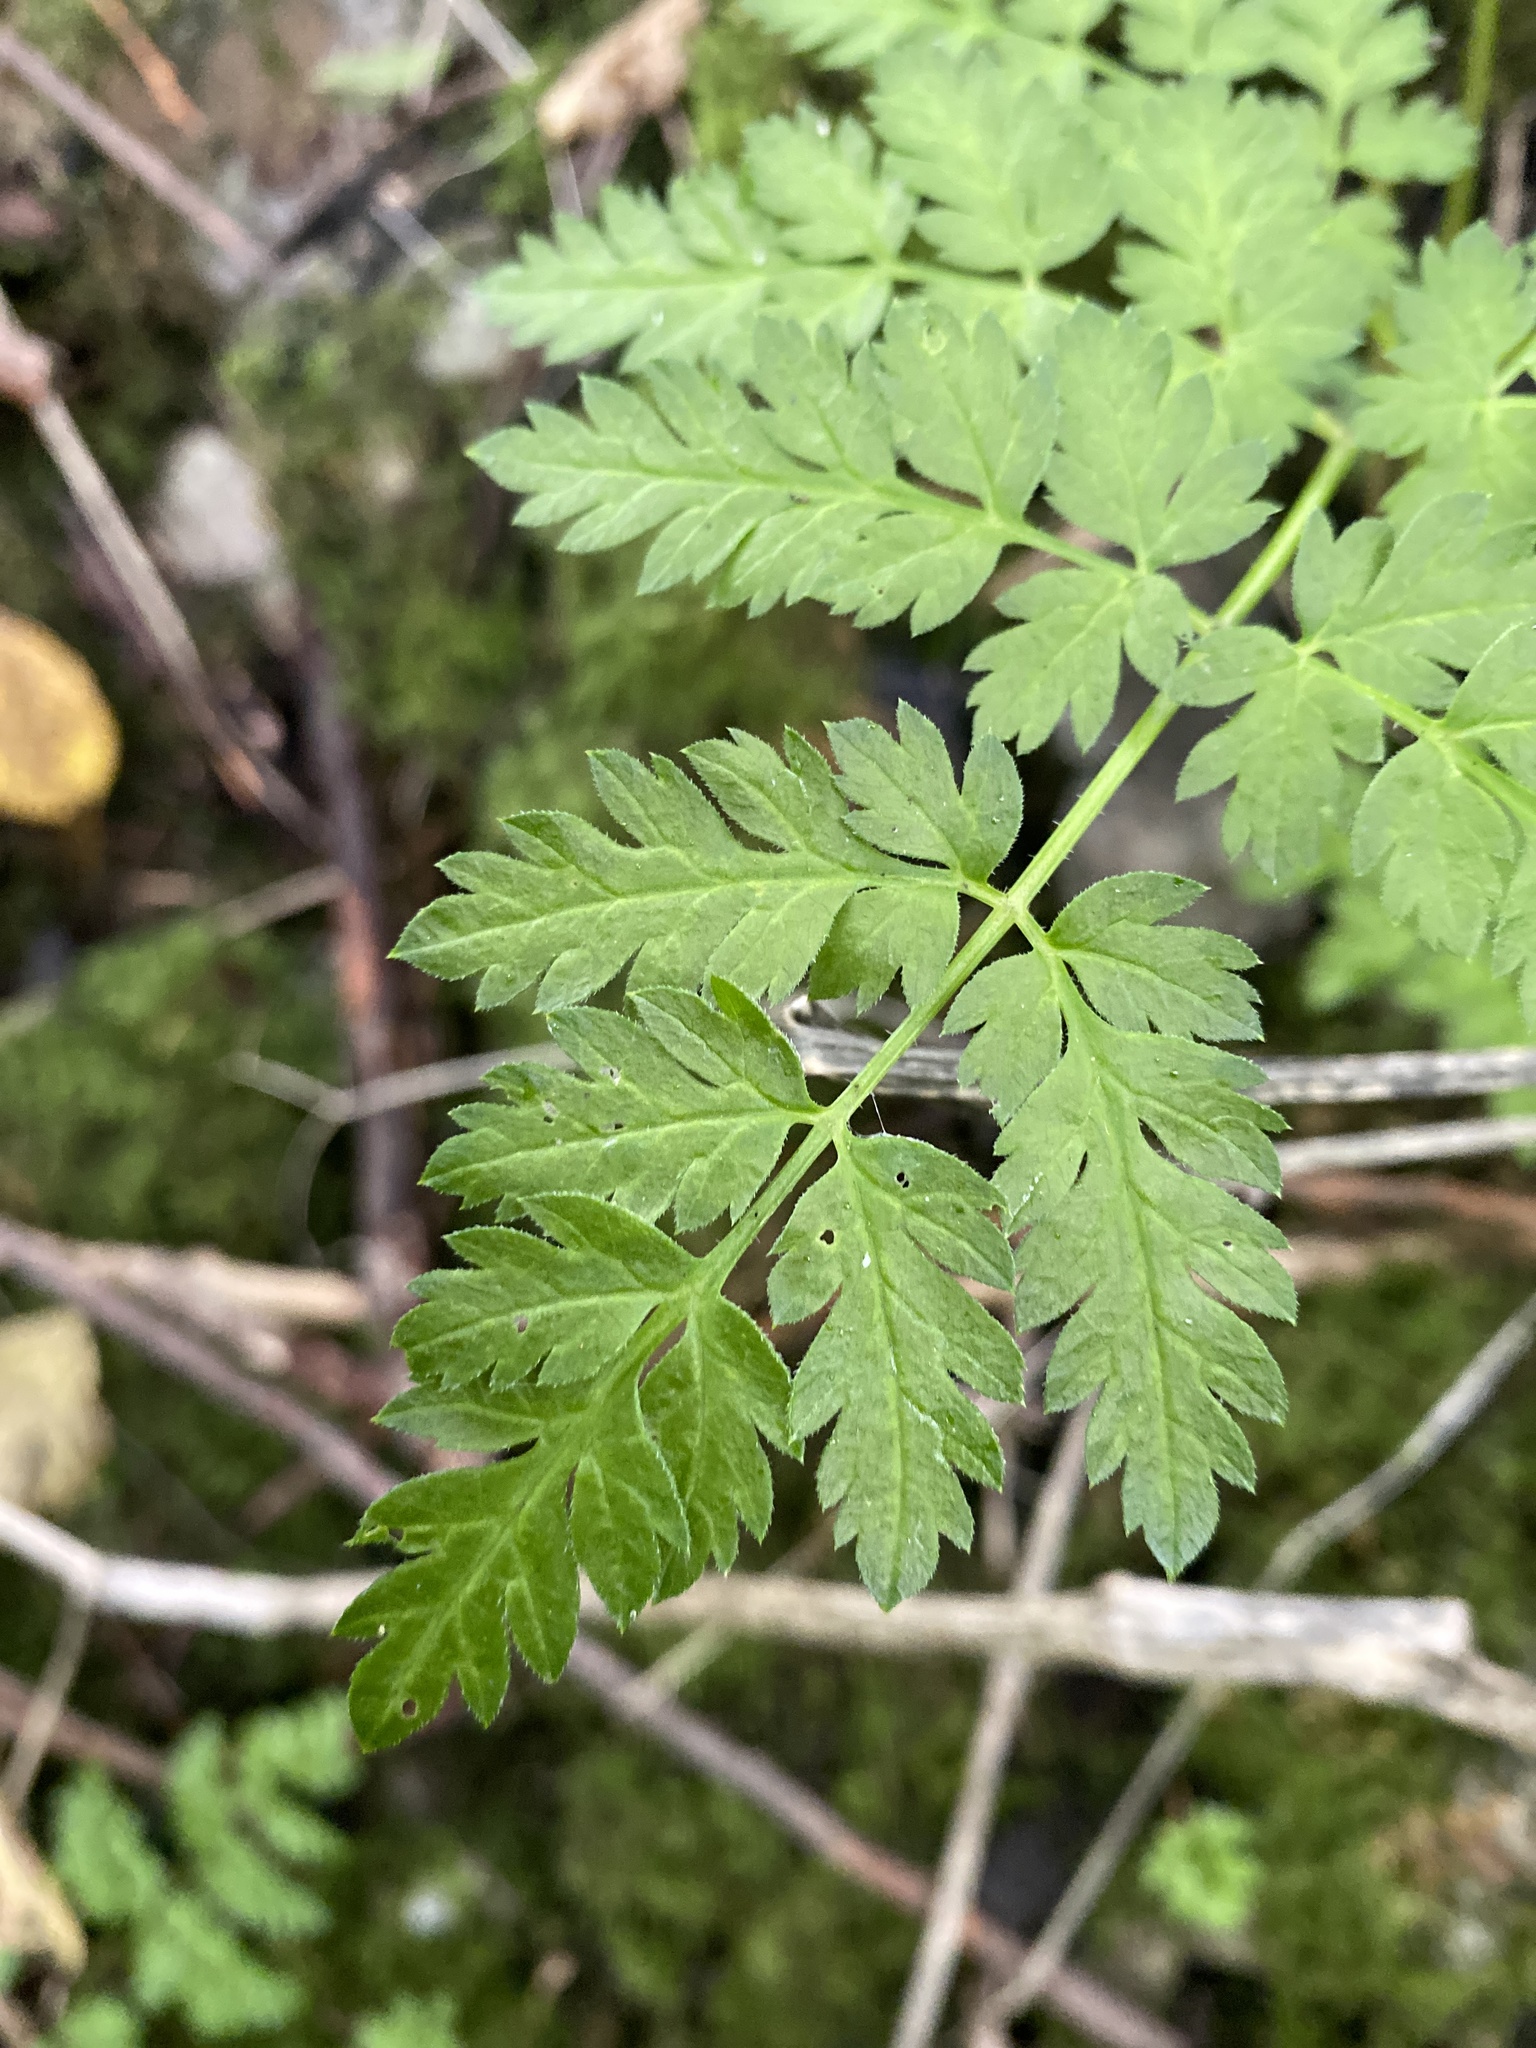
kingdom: Plantae
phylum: Tracheophyta
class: Magnoliopsida
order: Apiales
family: Apiaceae
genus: Anthriscus
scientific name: Anthriscus sylvestris
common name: Cow parsley
